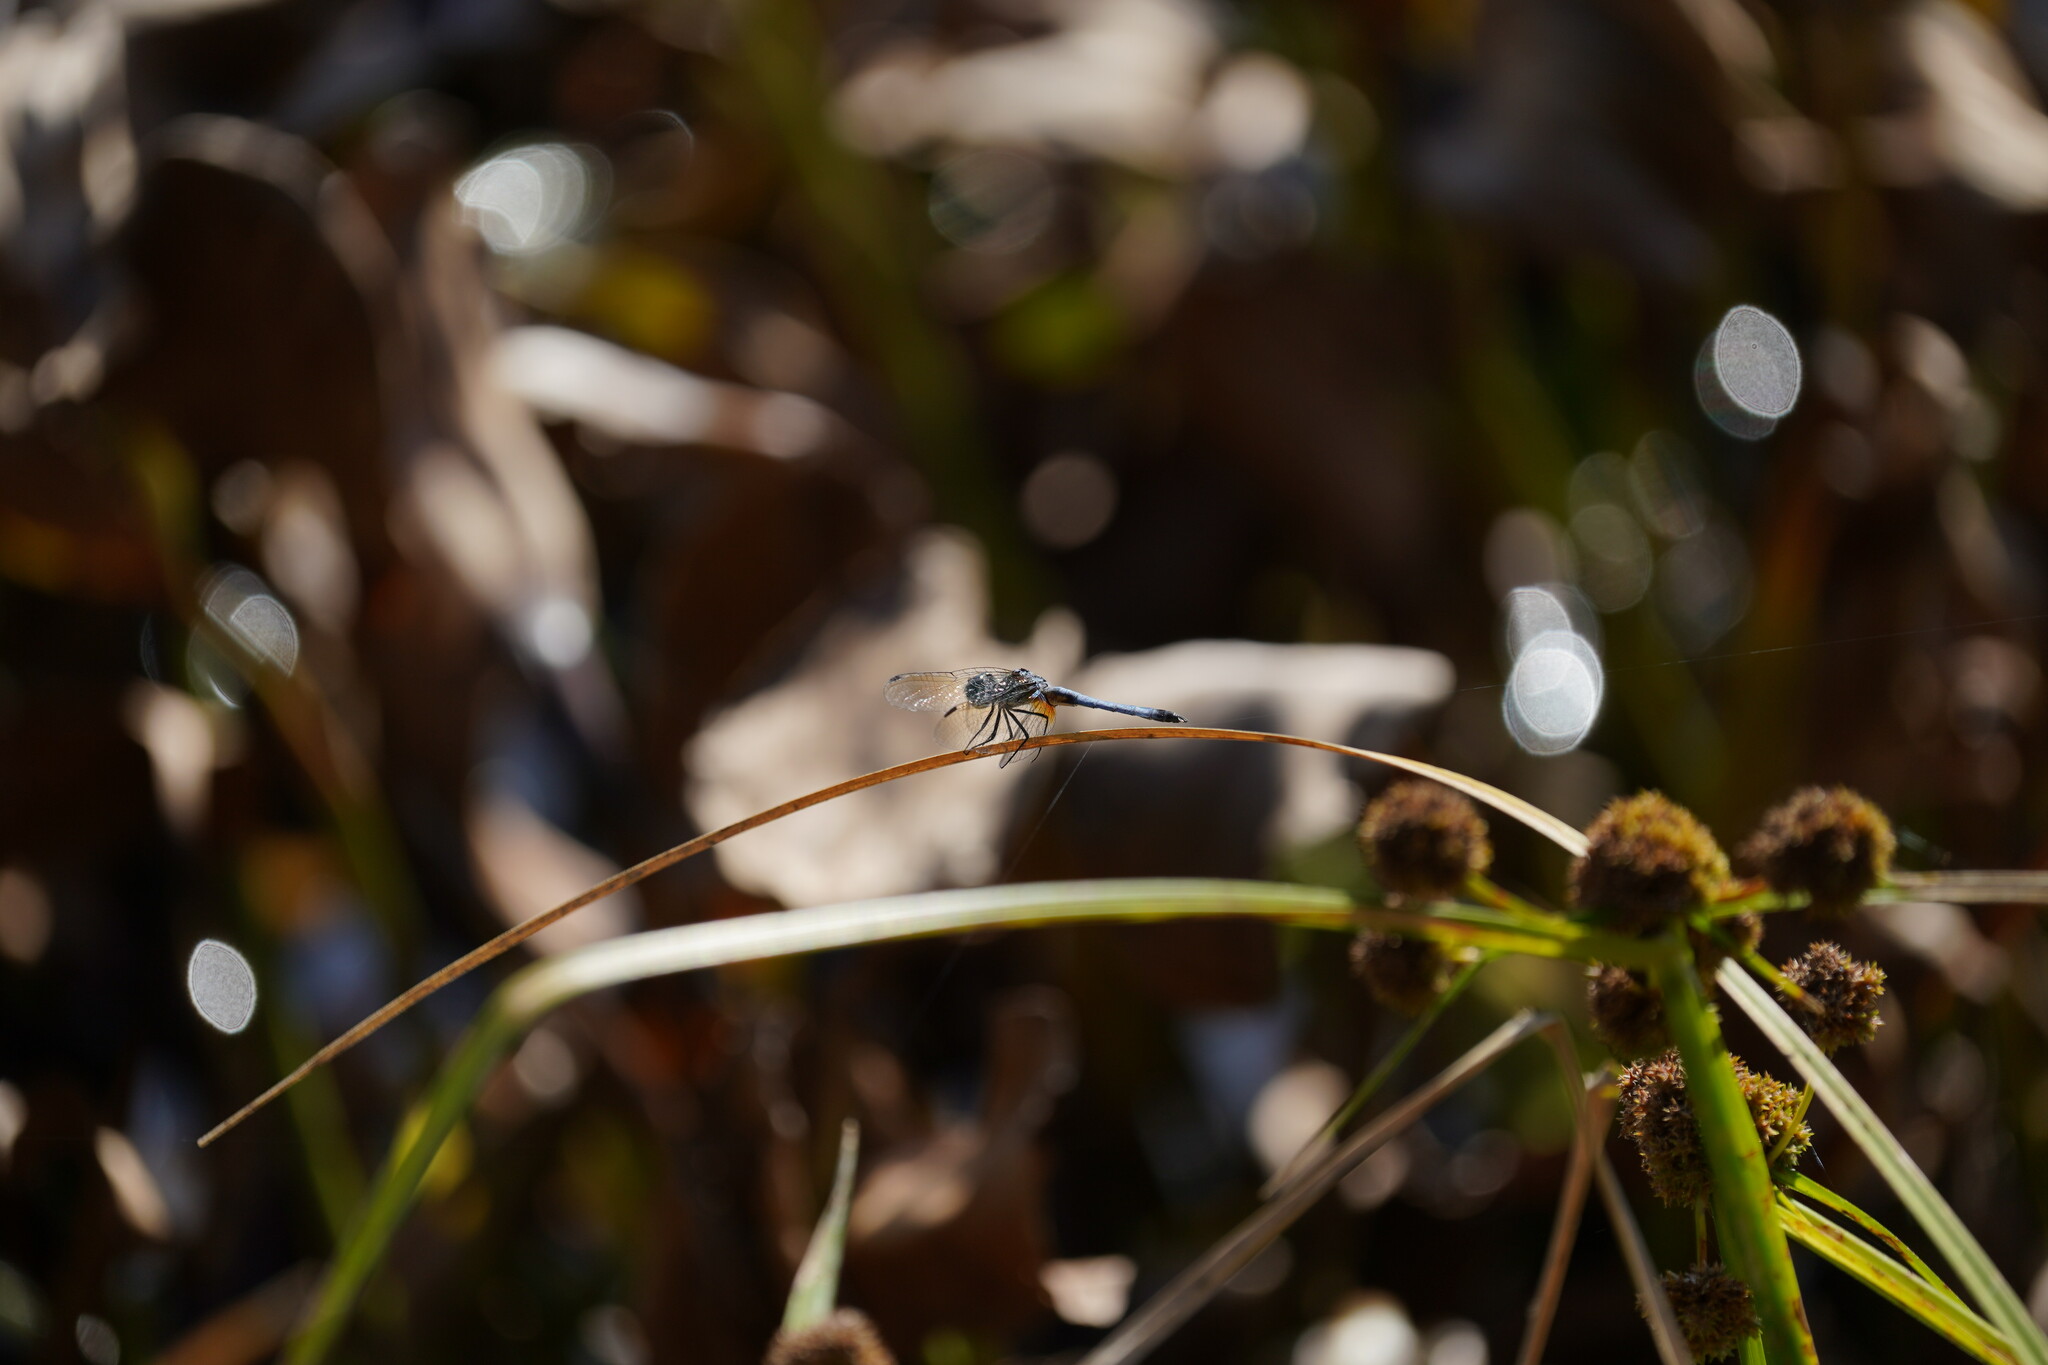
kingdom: Animalia
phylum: Arthropoda
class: Insecta
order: Odonata
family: Libellulidae
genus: Pachydiplax
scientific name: Pachydiplax longipennis
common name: Blue dasher
